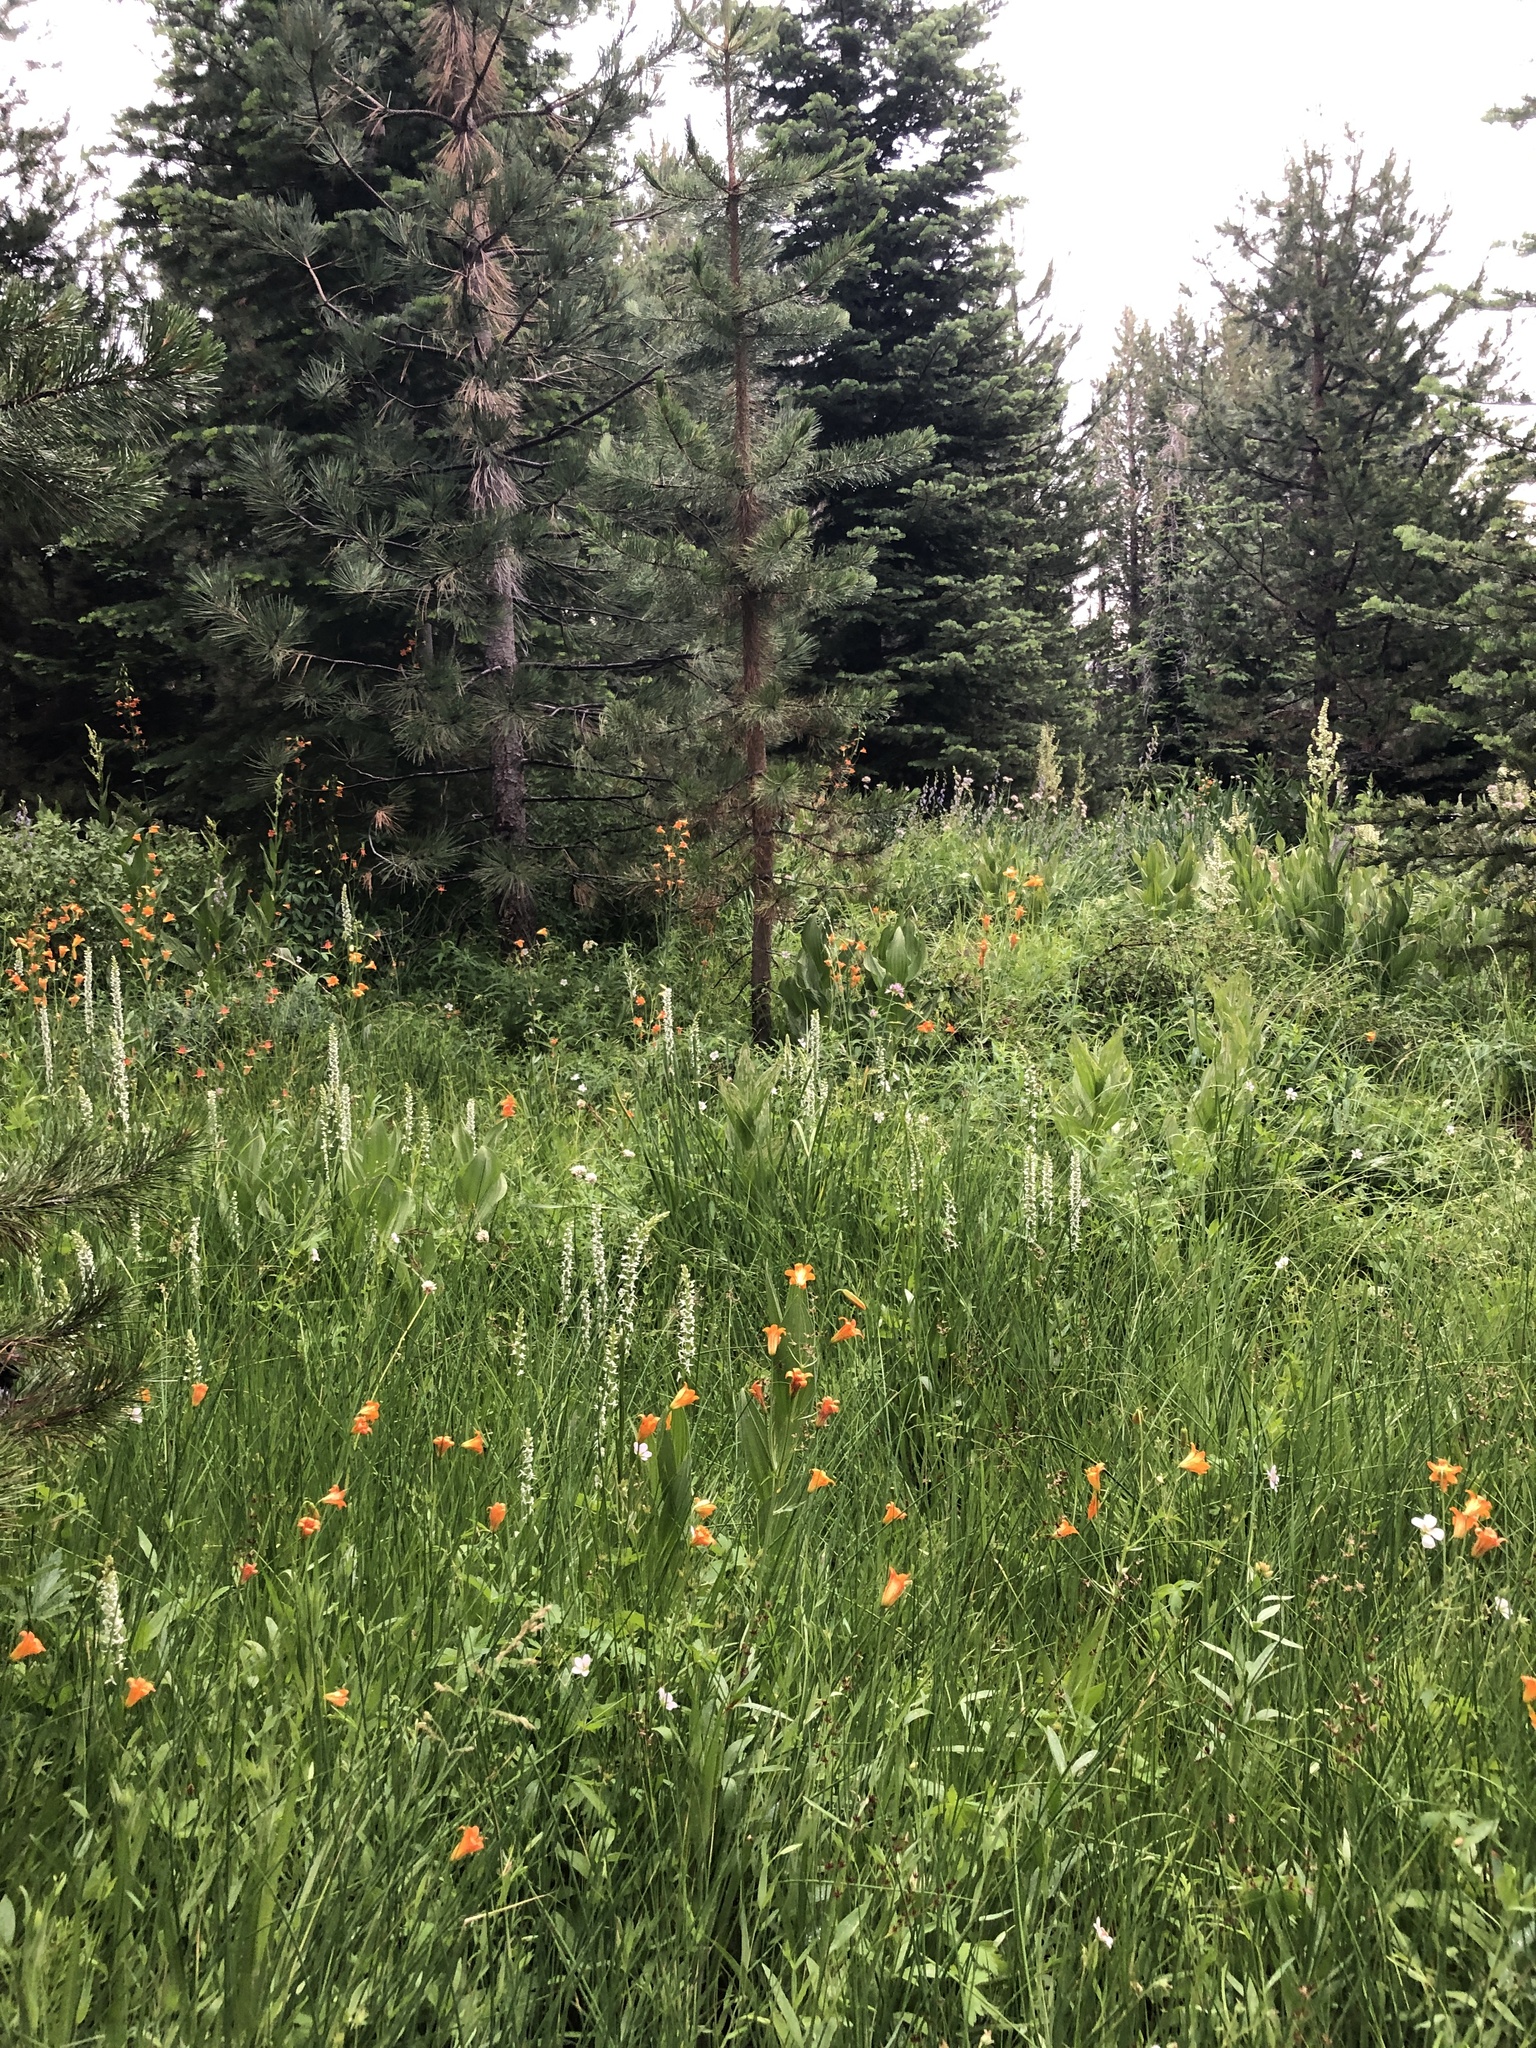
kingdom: Plantae
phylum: Tracheophyta
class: Liliopsida
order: Asparagales
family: Orchidaceae
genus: Platanthera
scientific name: Platanthera dilatata
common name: Bog candles
